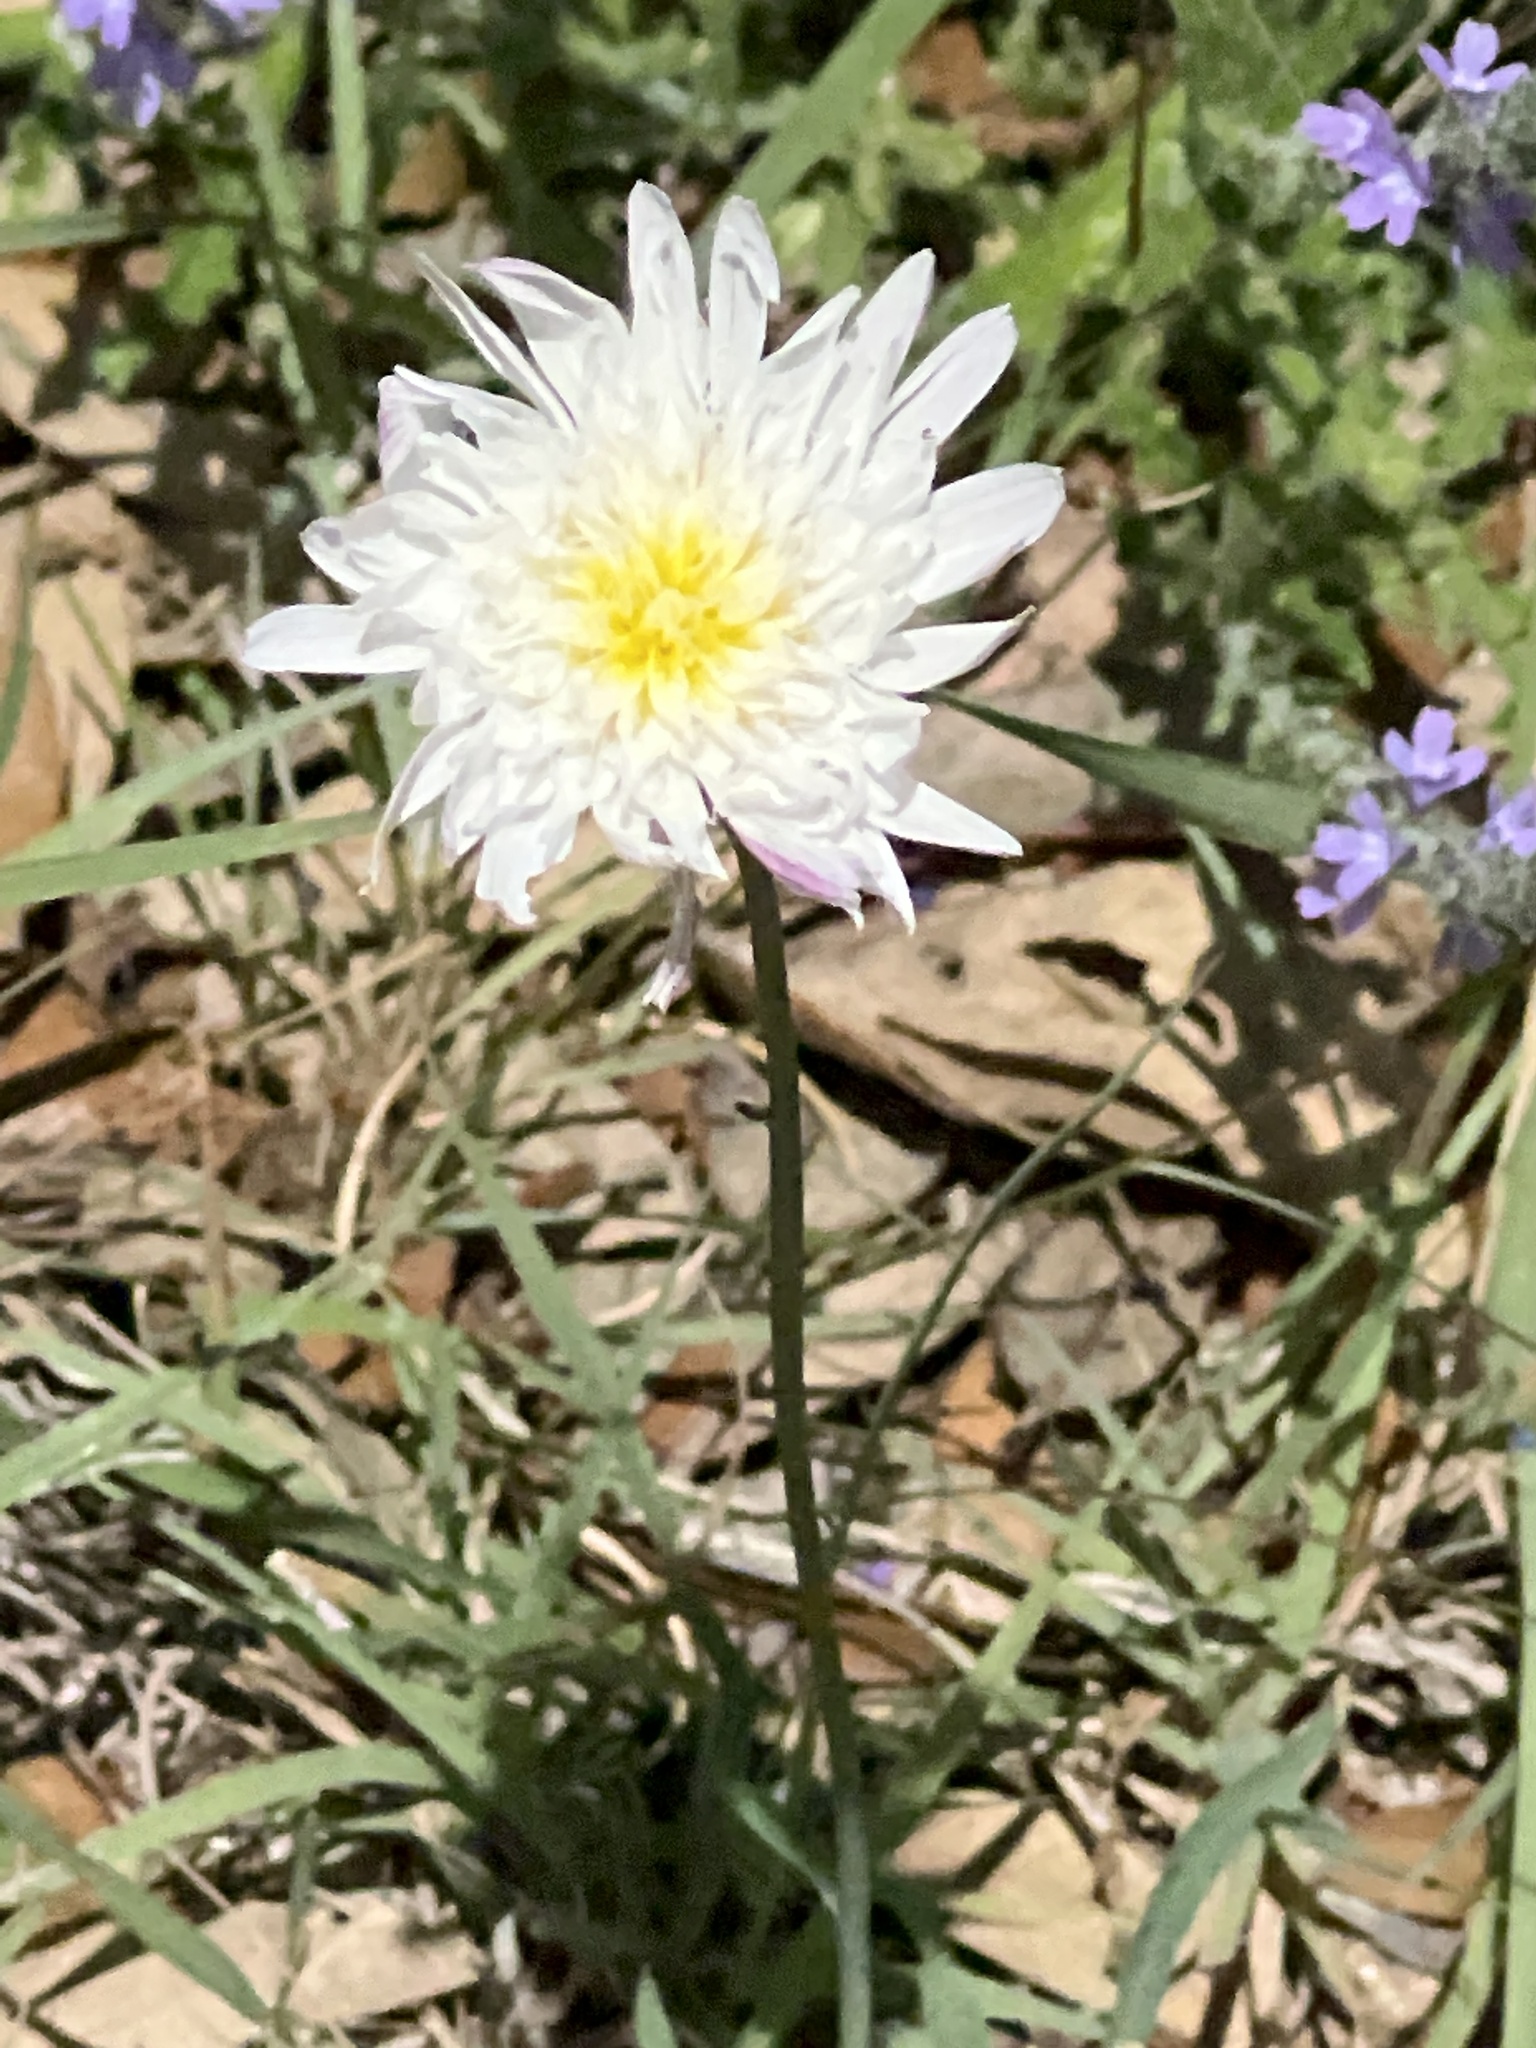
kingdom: Plantae
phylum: Tracheophyta
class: Magnoliopsida
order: Asterales
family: Asteraceae
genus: Pinaropappus
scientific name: Pinaropappus roseus
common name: Rock-lettuce
